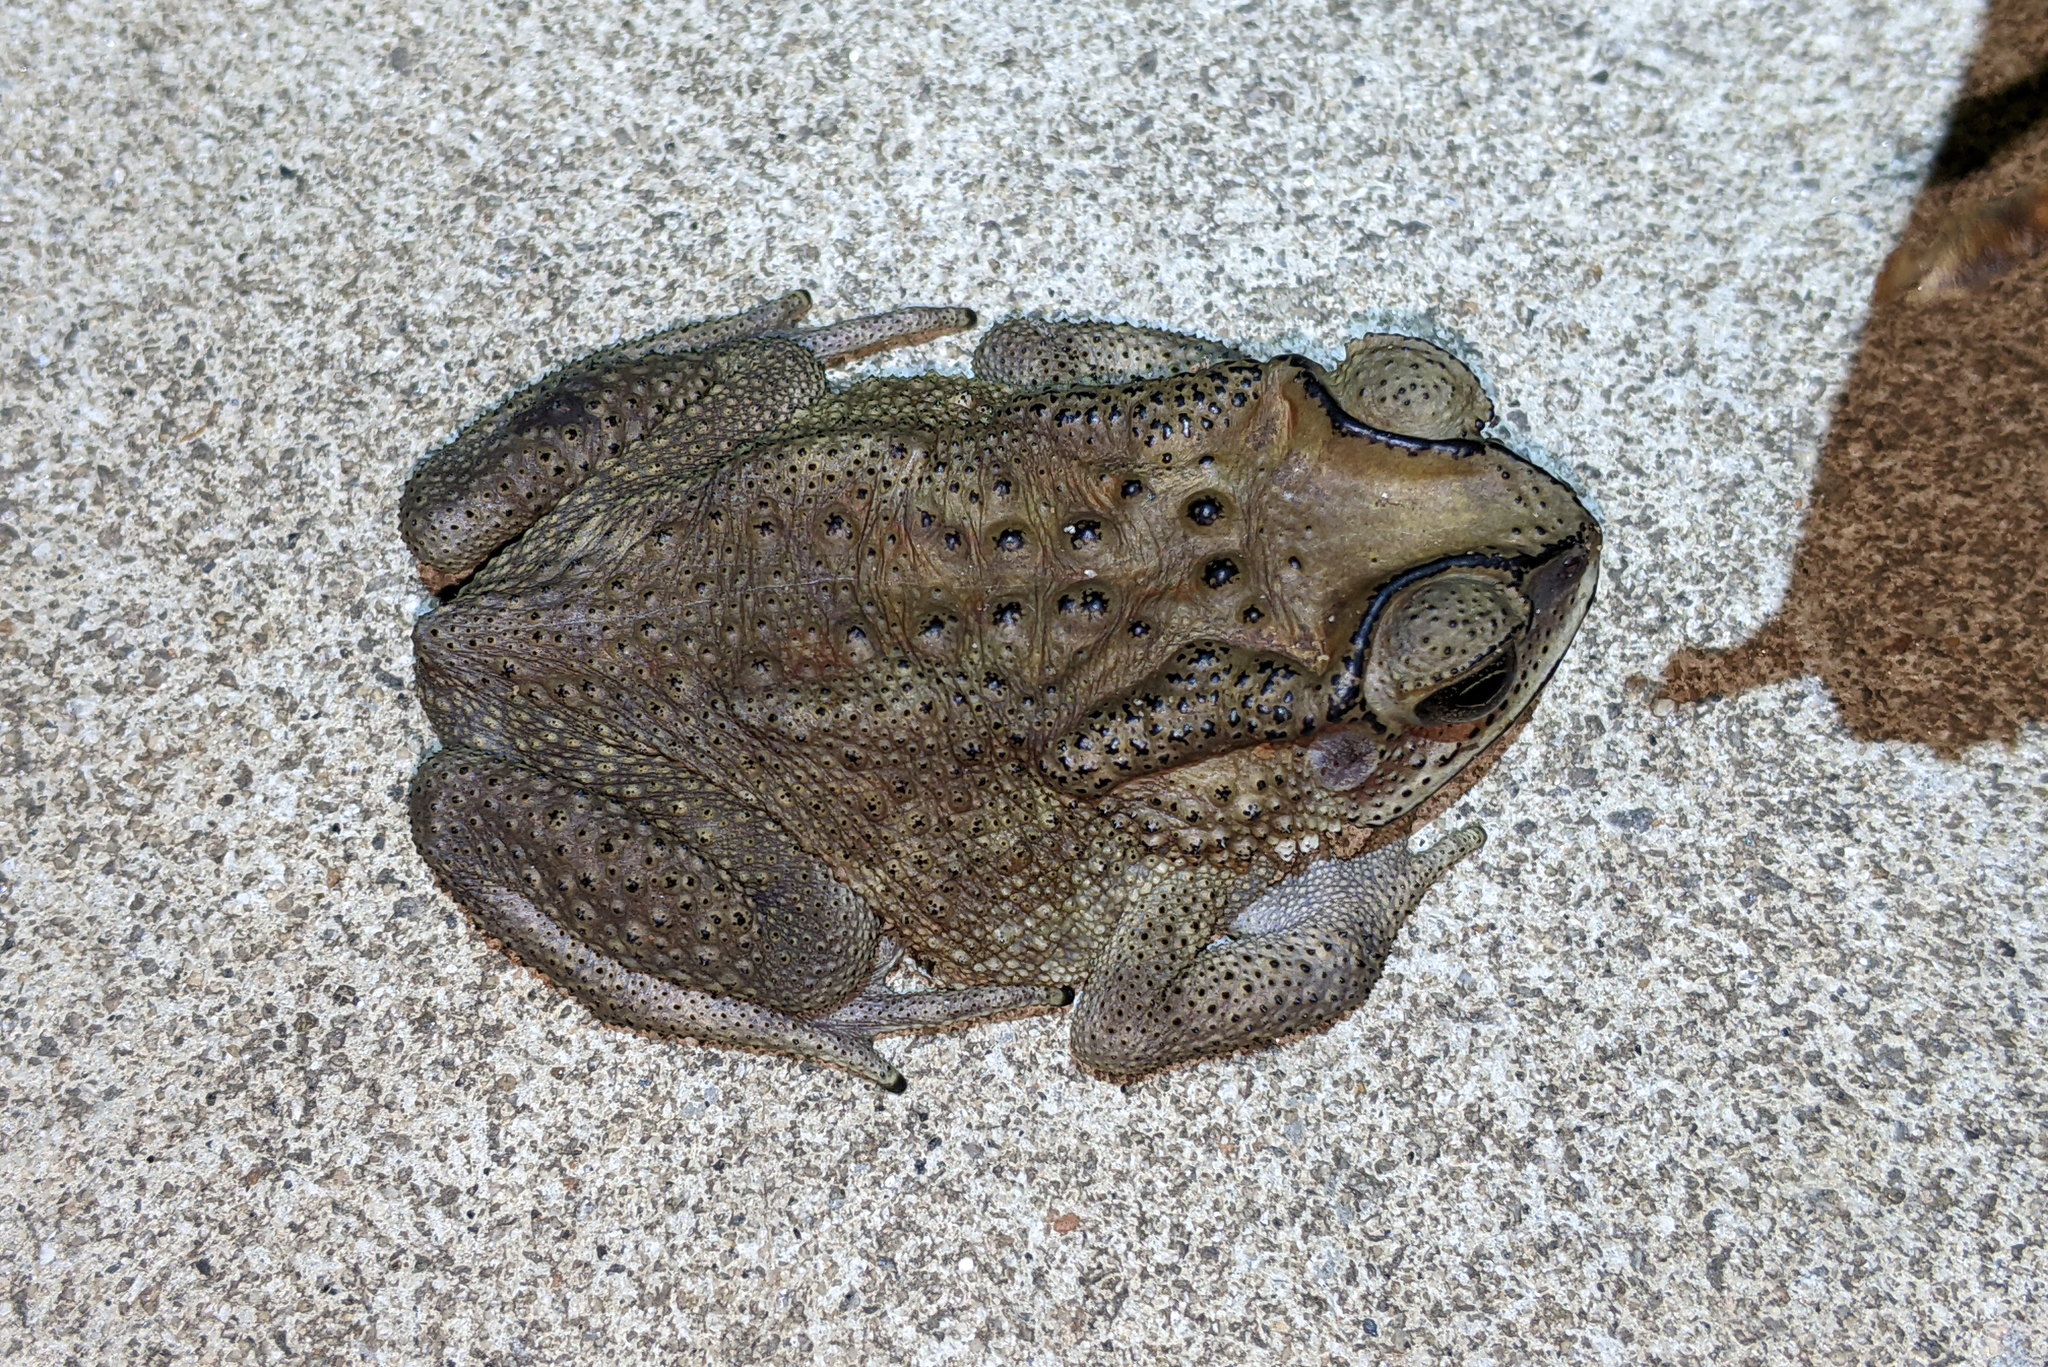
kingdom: Animalia
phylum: Chordata
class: Amphibia
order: Anura
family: Bufonidae
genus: Duttaphrynus
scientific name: Duttaphrynus melanostictus
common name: Common sunda toad
